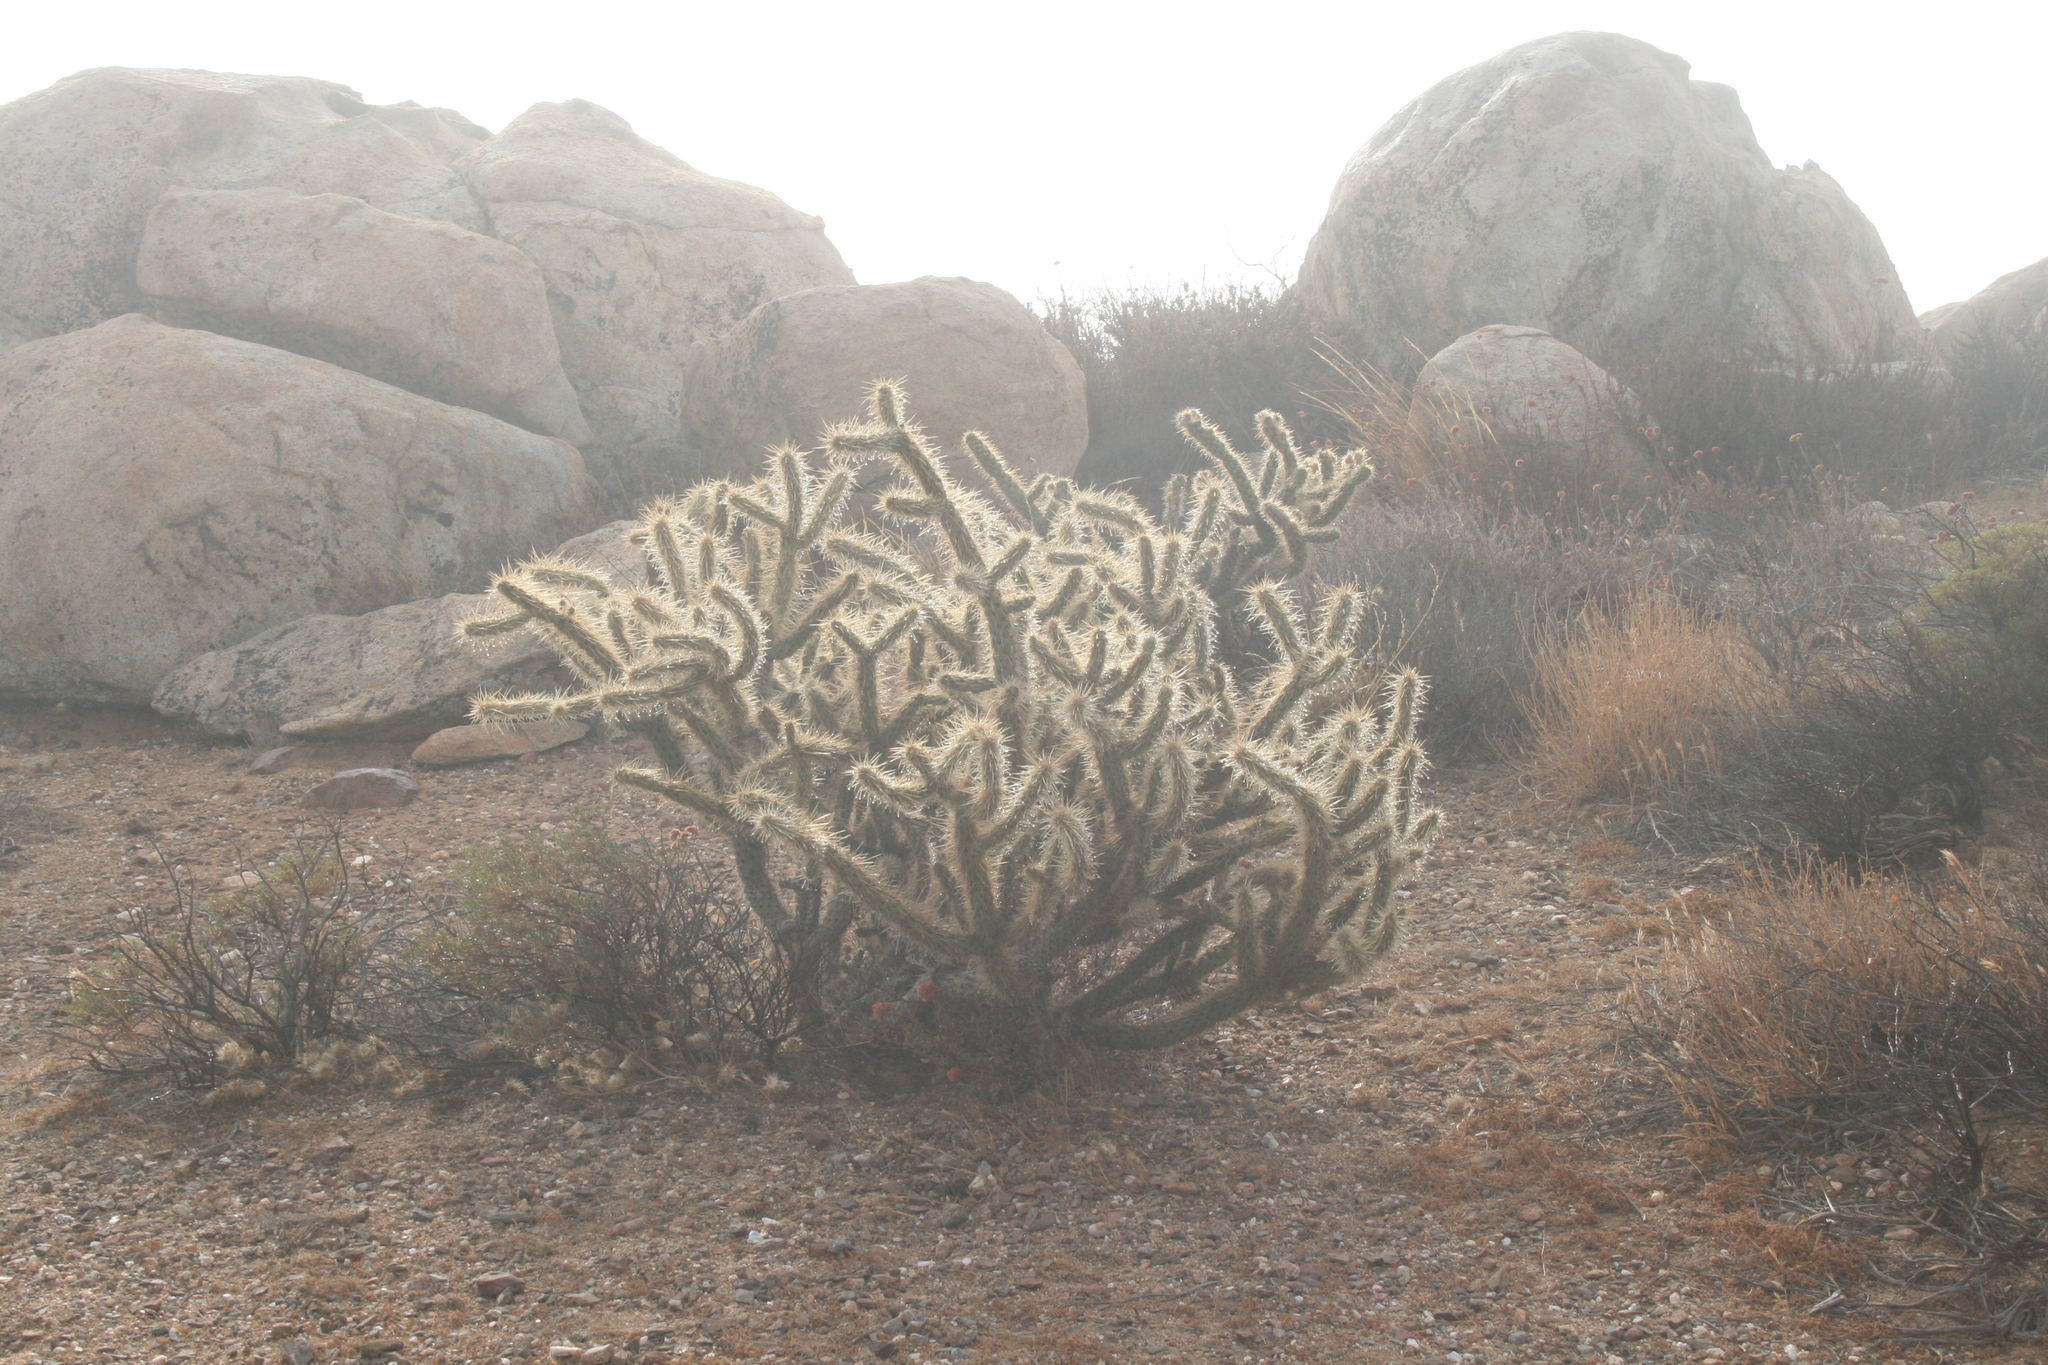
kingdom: Plantae
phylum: Tracheophyta
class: Magnoliopsida
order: Caryophyllales
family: Cactaceae
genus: Cylindropuntia
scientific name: Cylindropuntia wolfii
